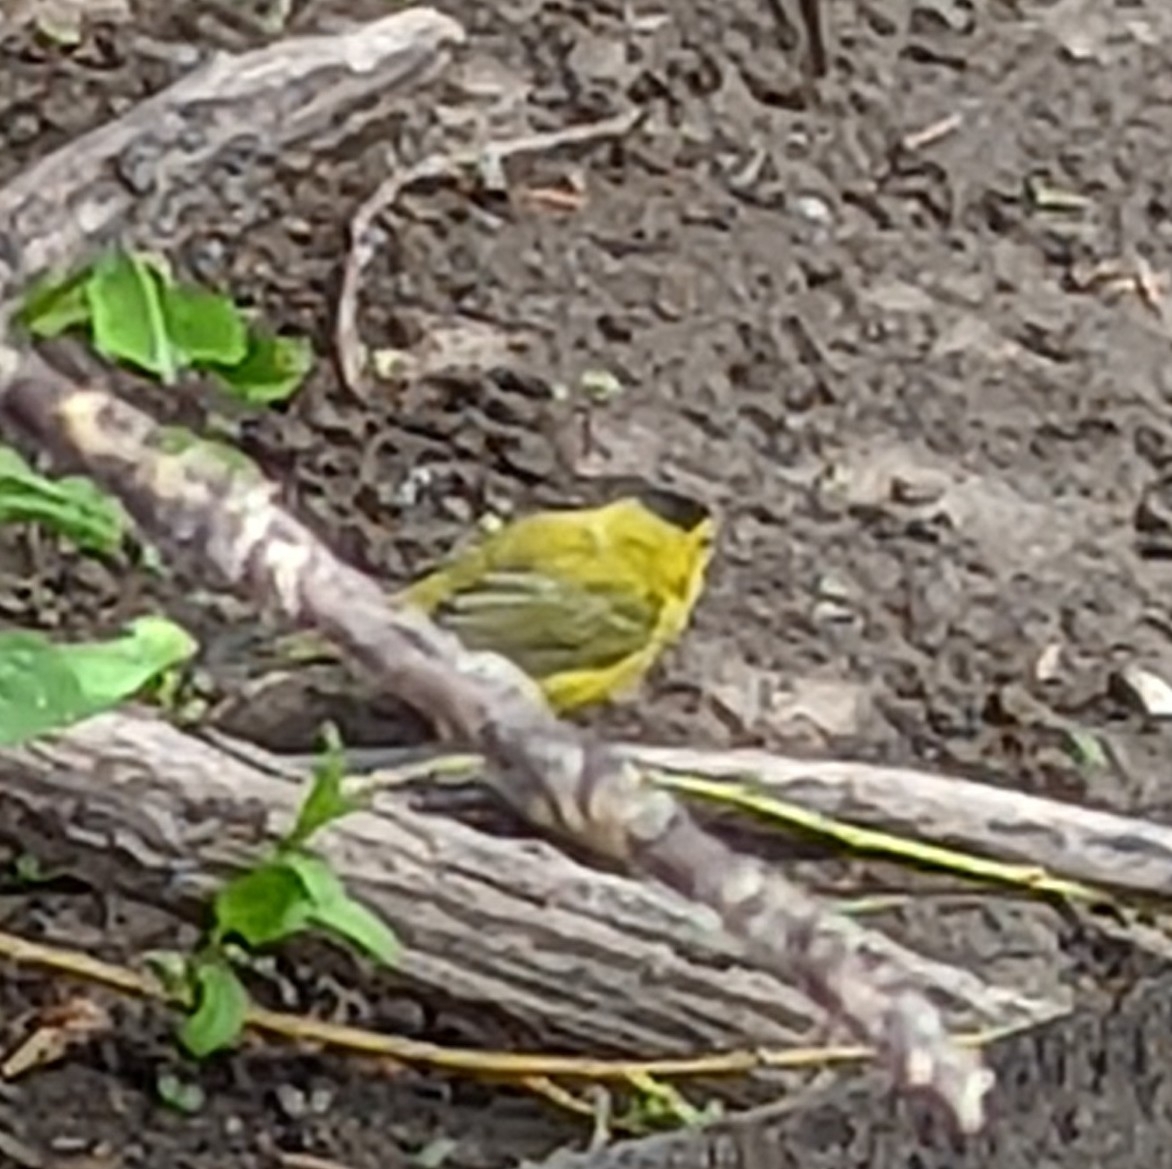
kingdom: Animalia
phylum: Chordata
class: Aves
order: Passeriformes
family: Parulidae
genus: Cardellina
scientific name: Cardellina pusilla
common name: Wilson's warbler
